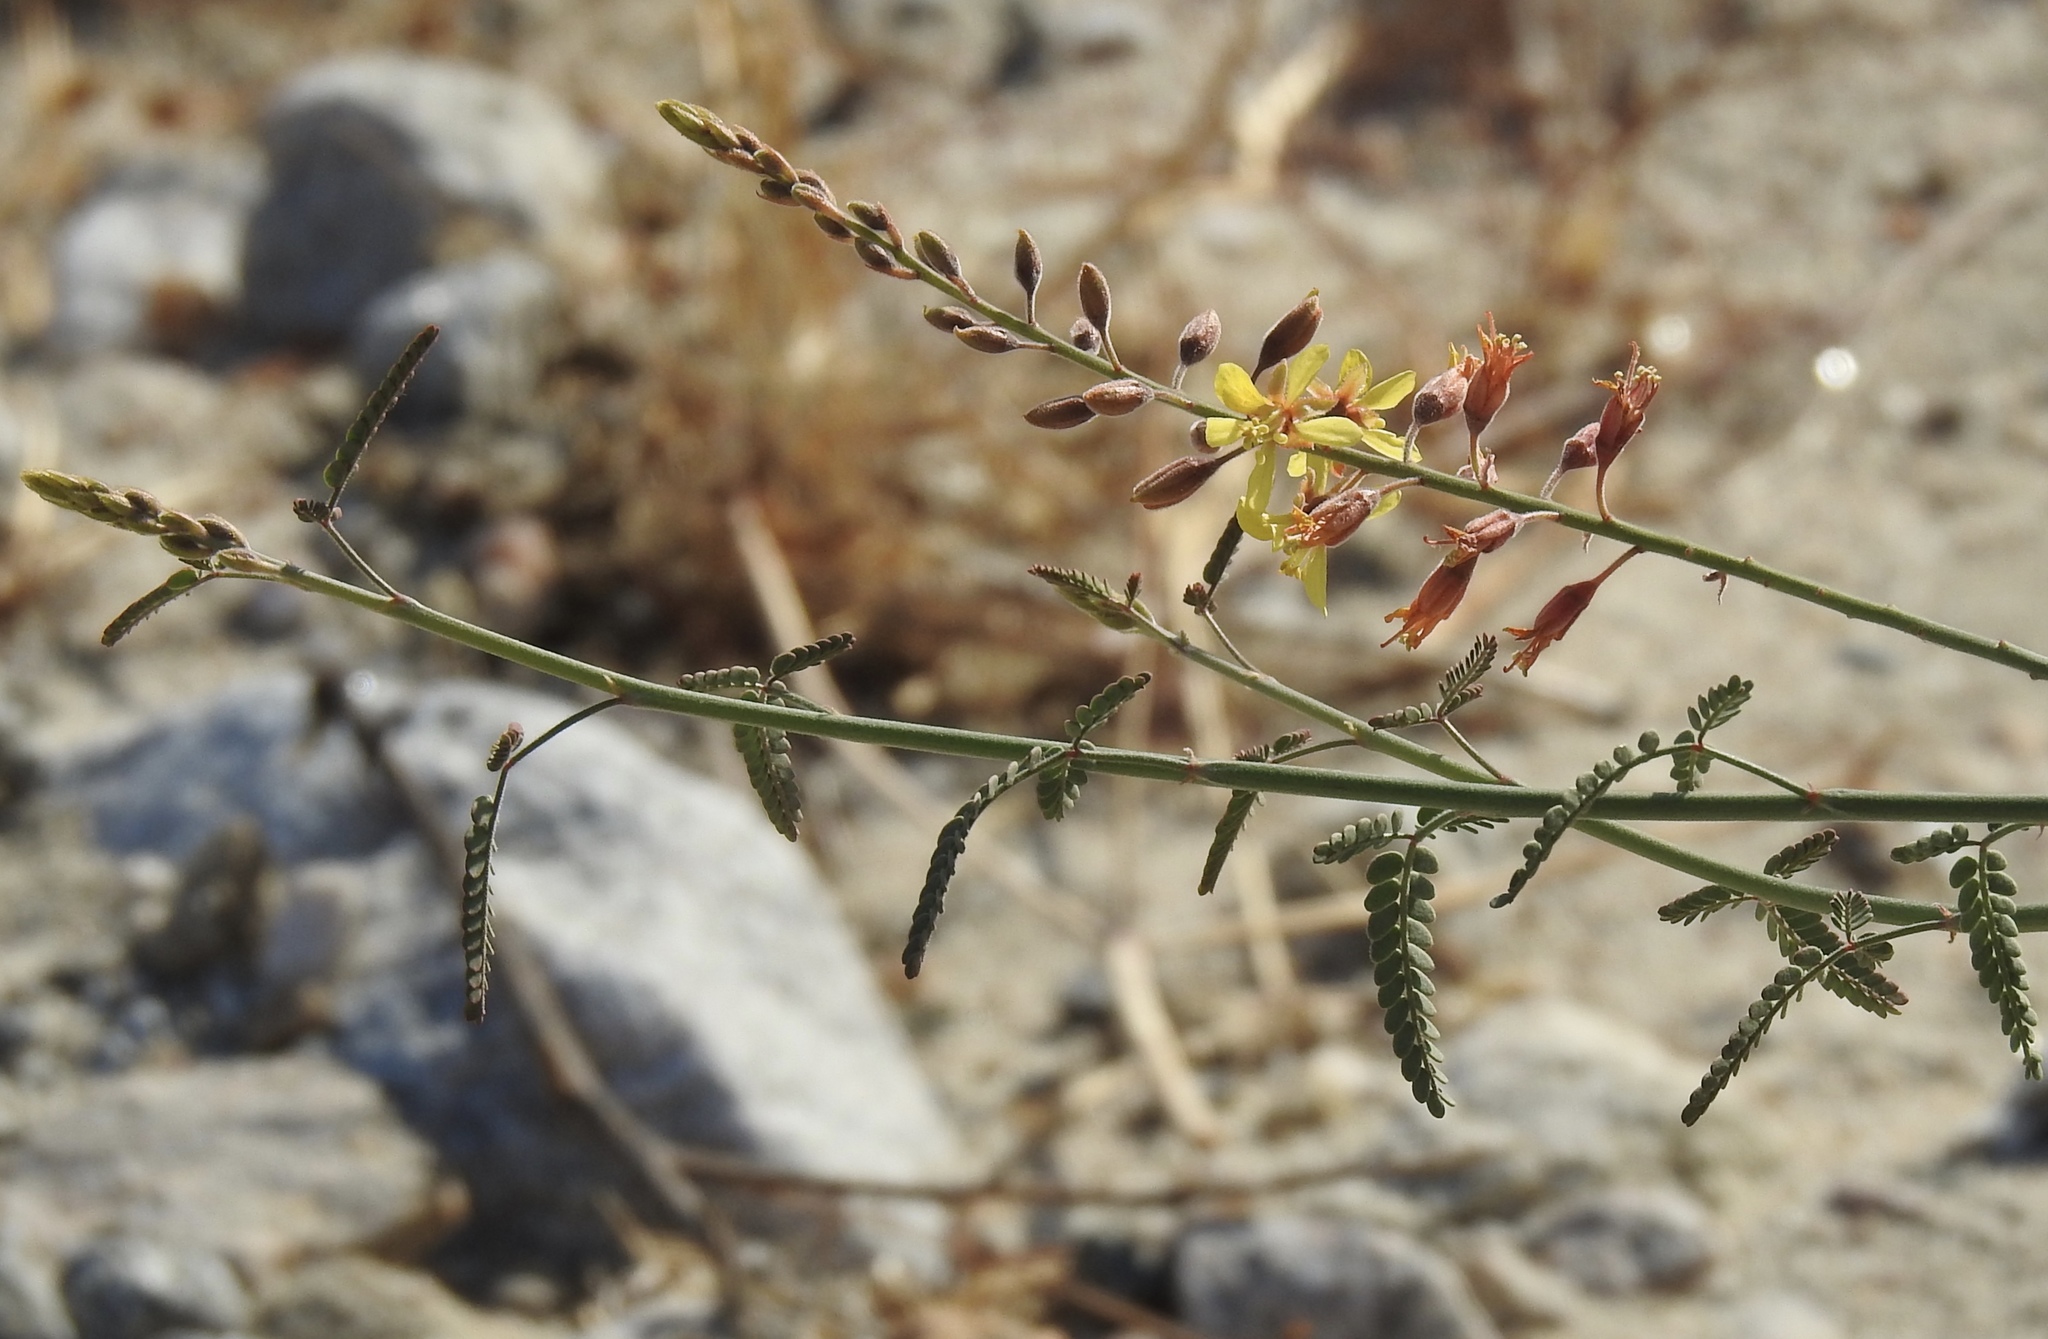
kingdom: Plantae
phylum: Tracheophyta
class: Magnoliopsida
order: Fabales
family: Fabaceae
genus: Hoffmannseggia
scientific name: Hoffmannseggia microphylla
